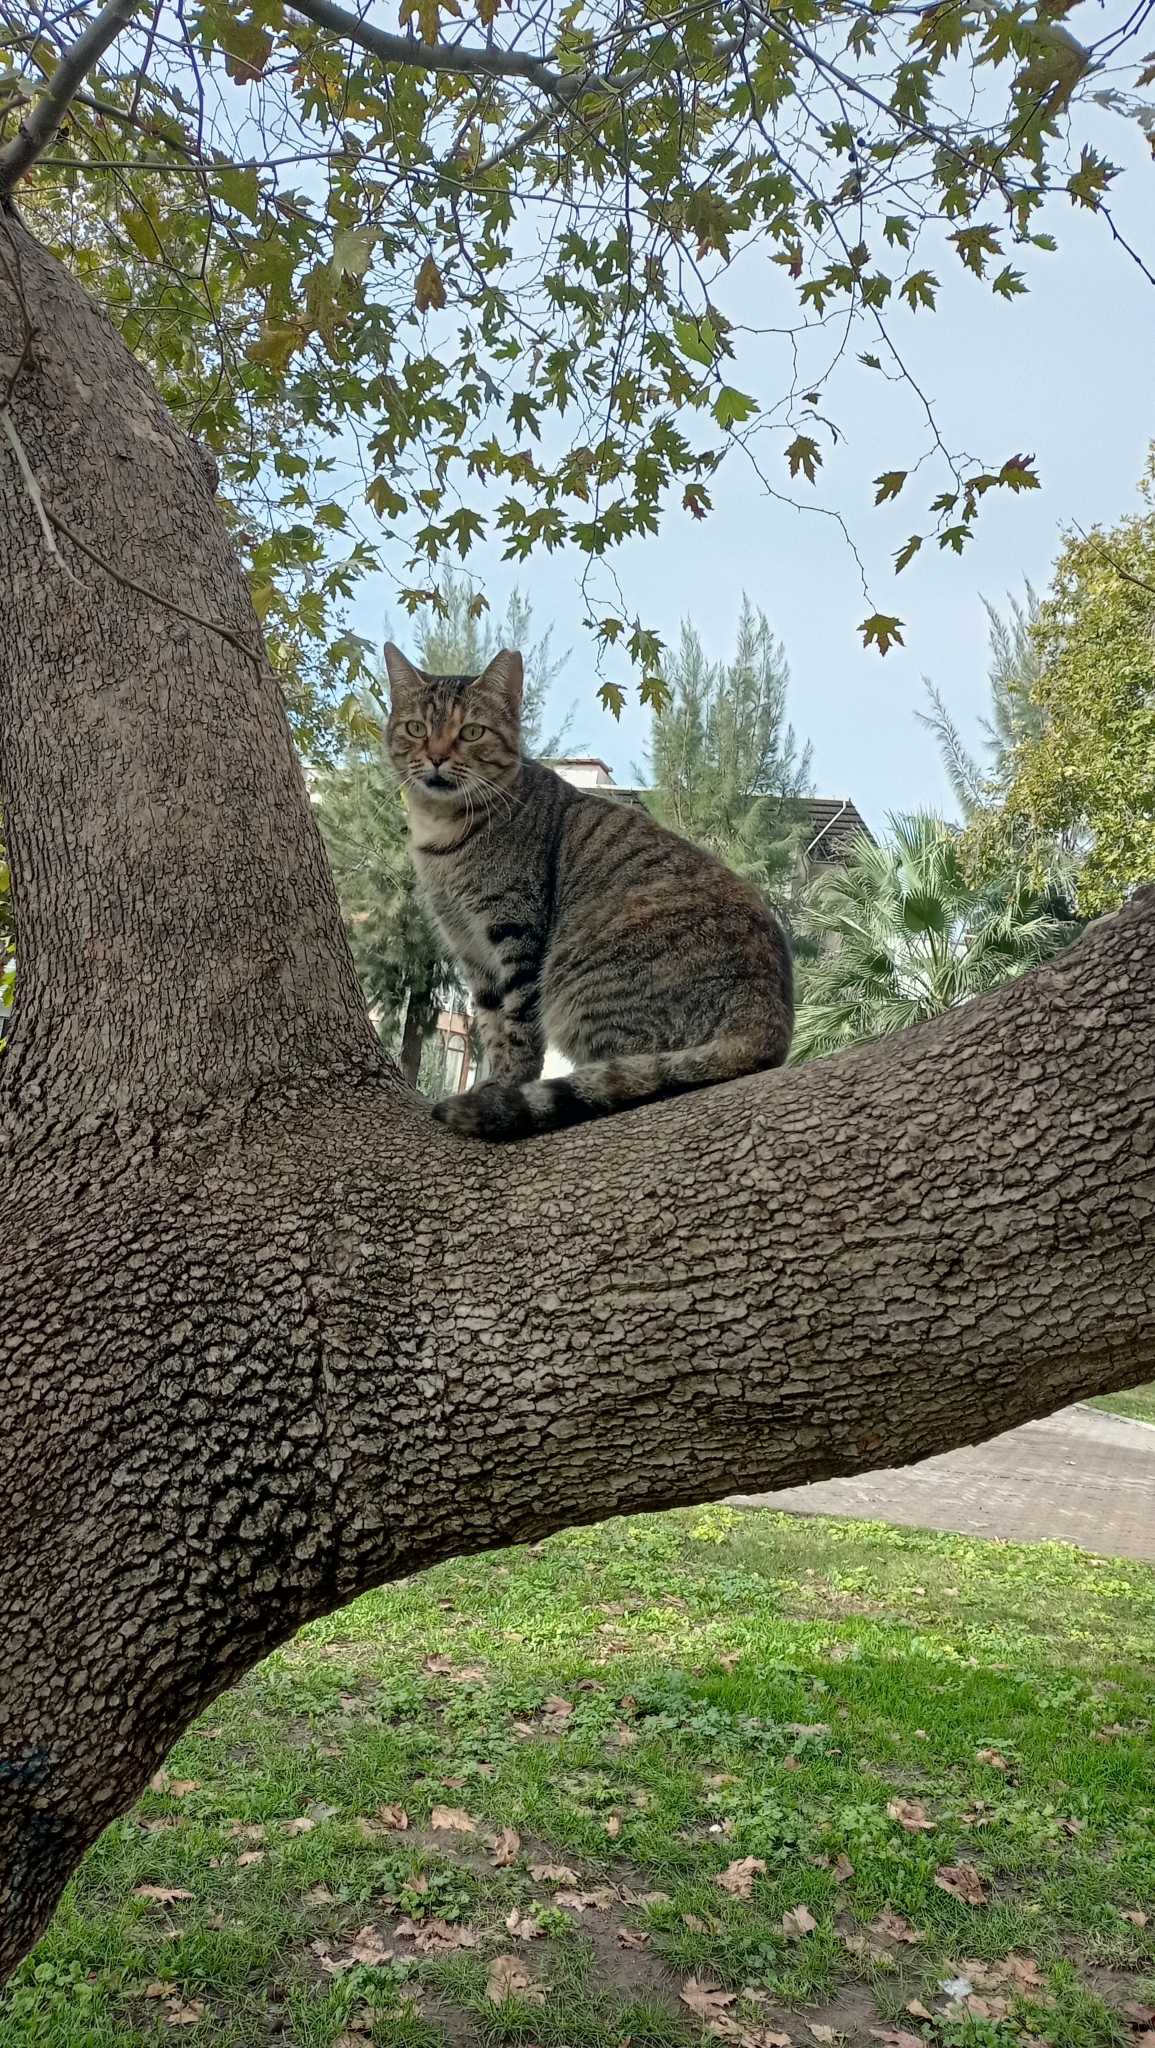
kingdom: Animalia
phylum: Chordata
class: Mammalia
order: Carnivora
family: Felidae
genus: Felis
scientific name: Felis catus
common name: Domestic cat
